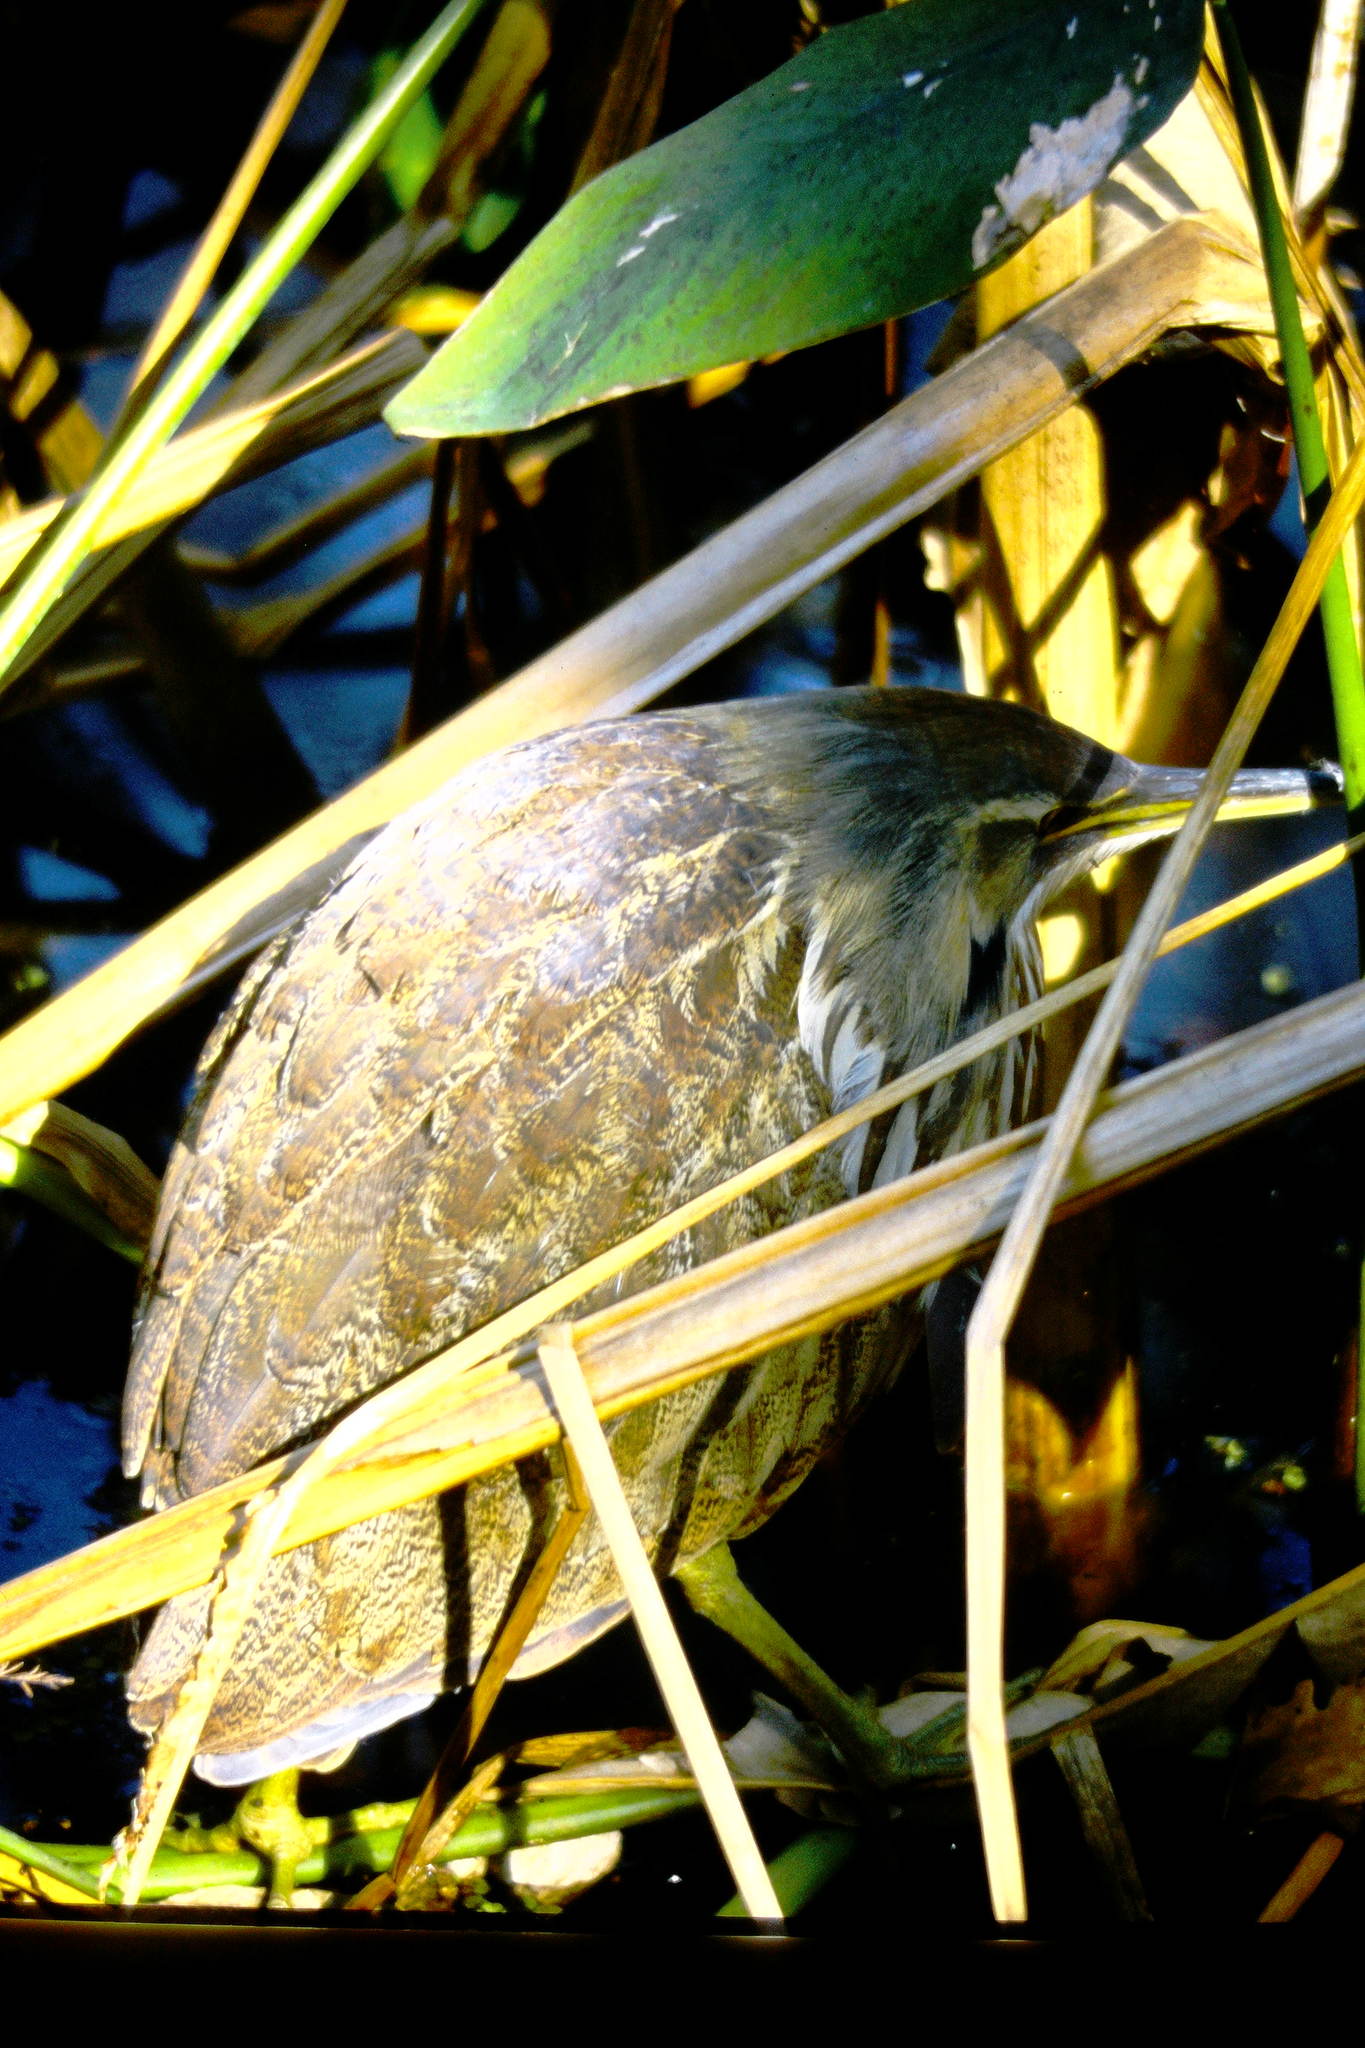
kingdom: Animalia
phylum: Chordata
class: Aves
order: Pelecaniformes
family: Ardeidae
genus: Botaurus
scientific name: Botaurus lentiginosus
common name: American bittern
